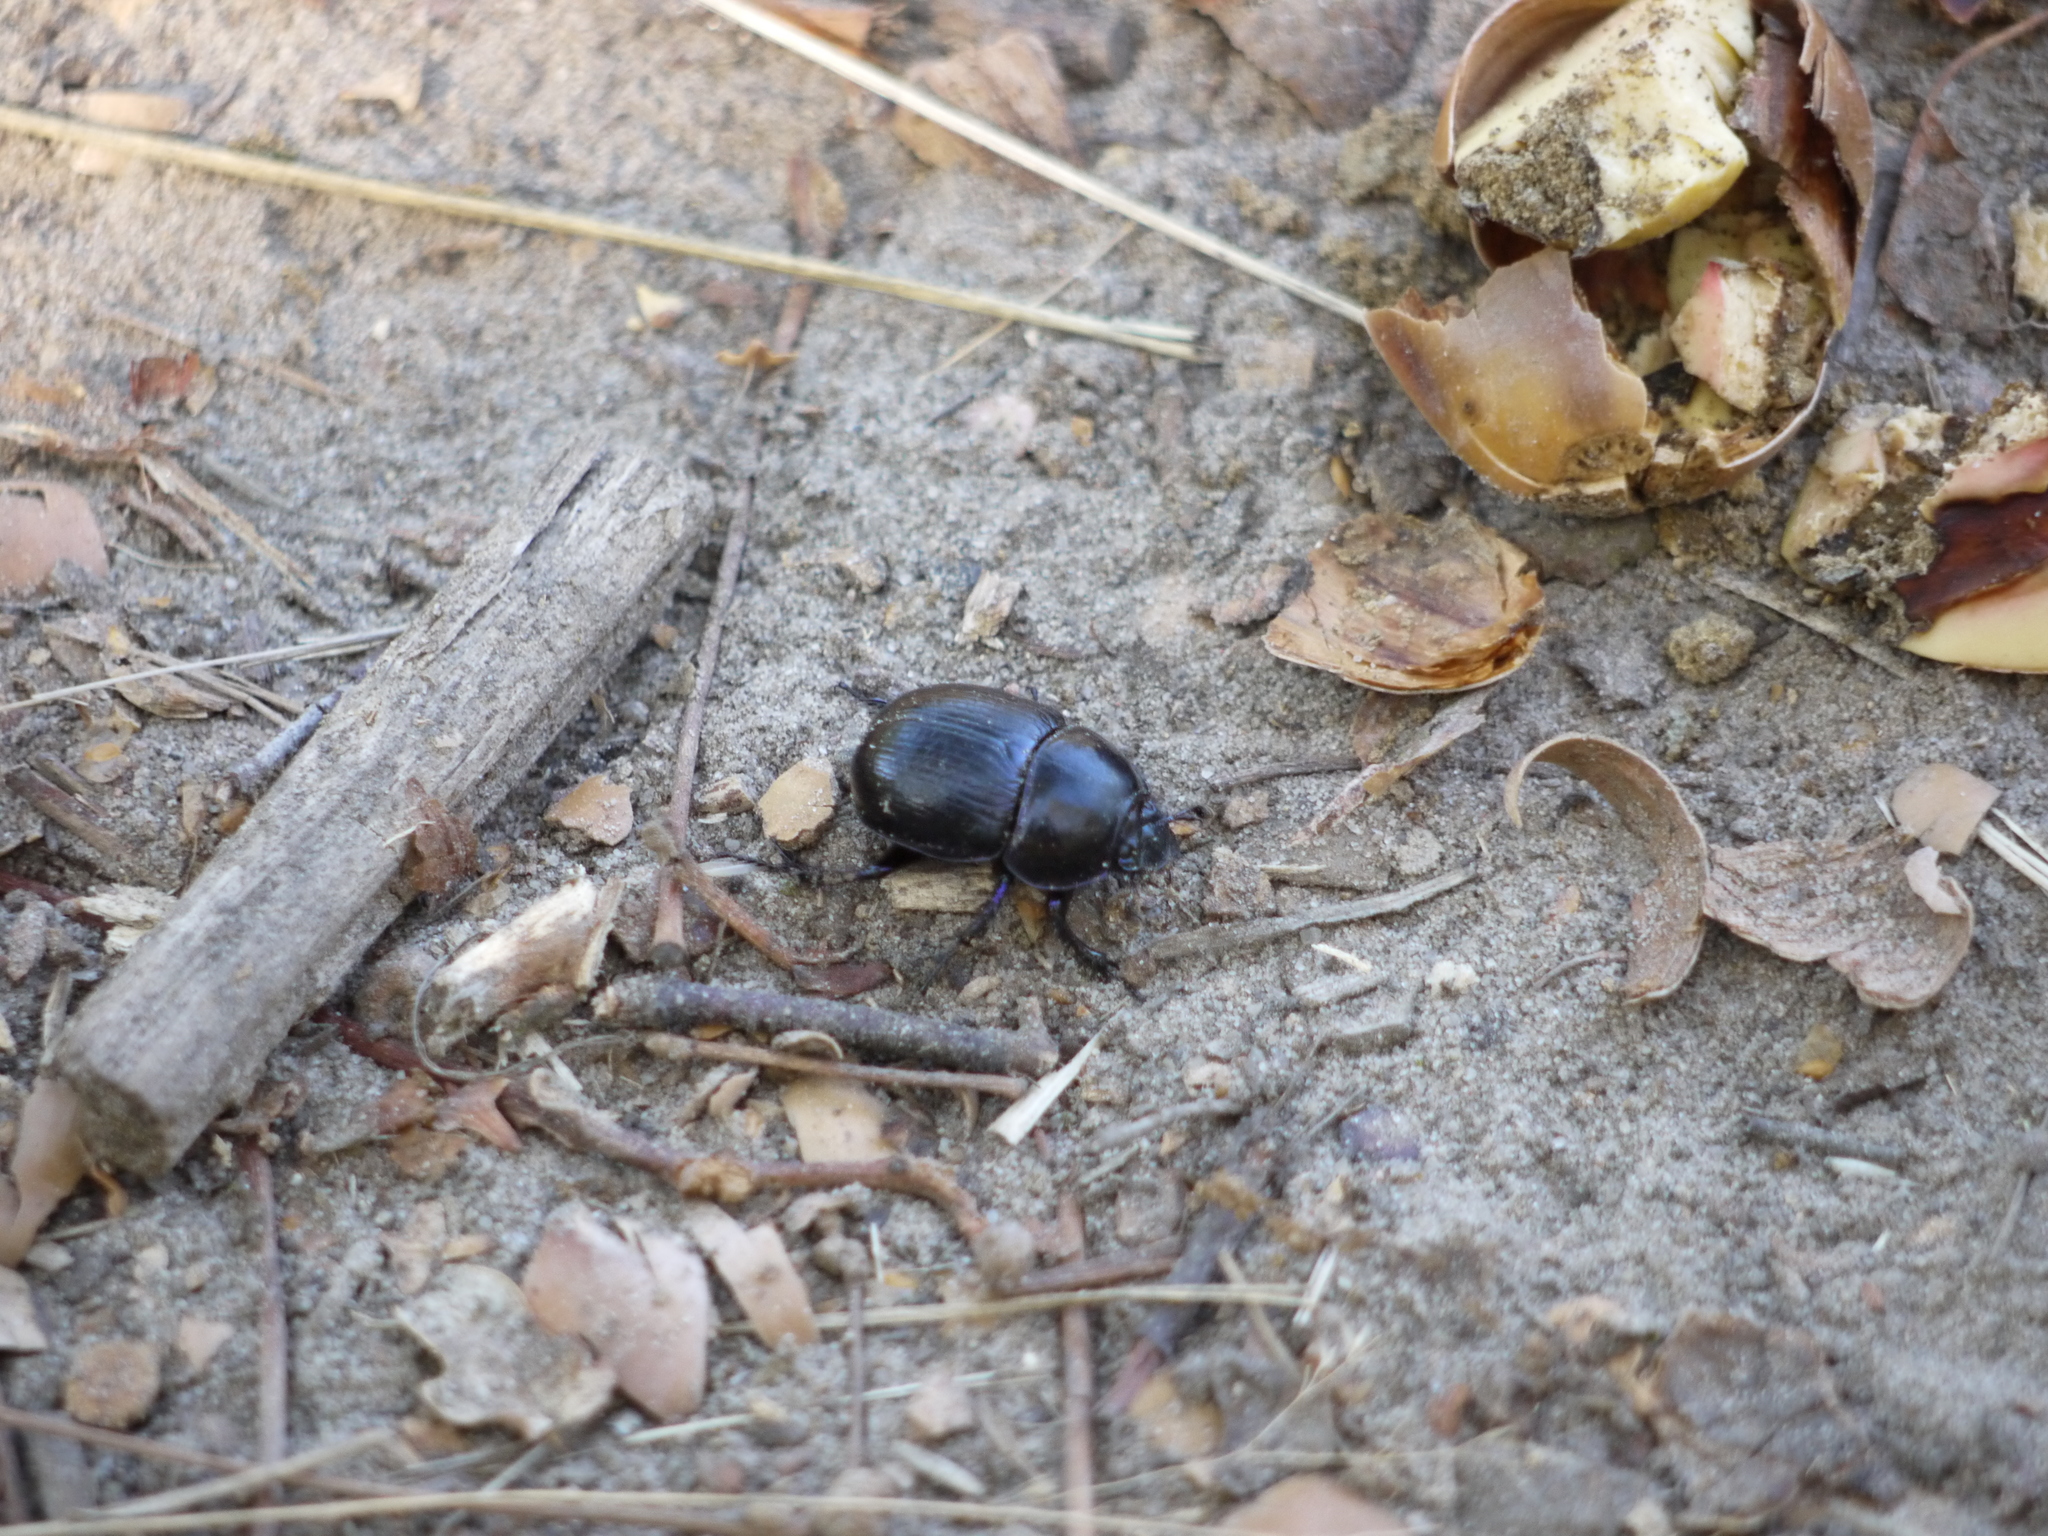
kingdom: Animalia
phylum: Arthropoda
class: Insecta
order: Coleoptera
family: Geotrupidae
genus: Anoplotrupes
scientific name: Anoplotrupes stercorosus
